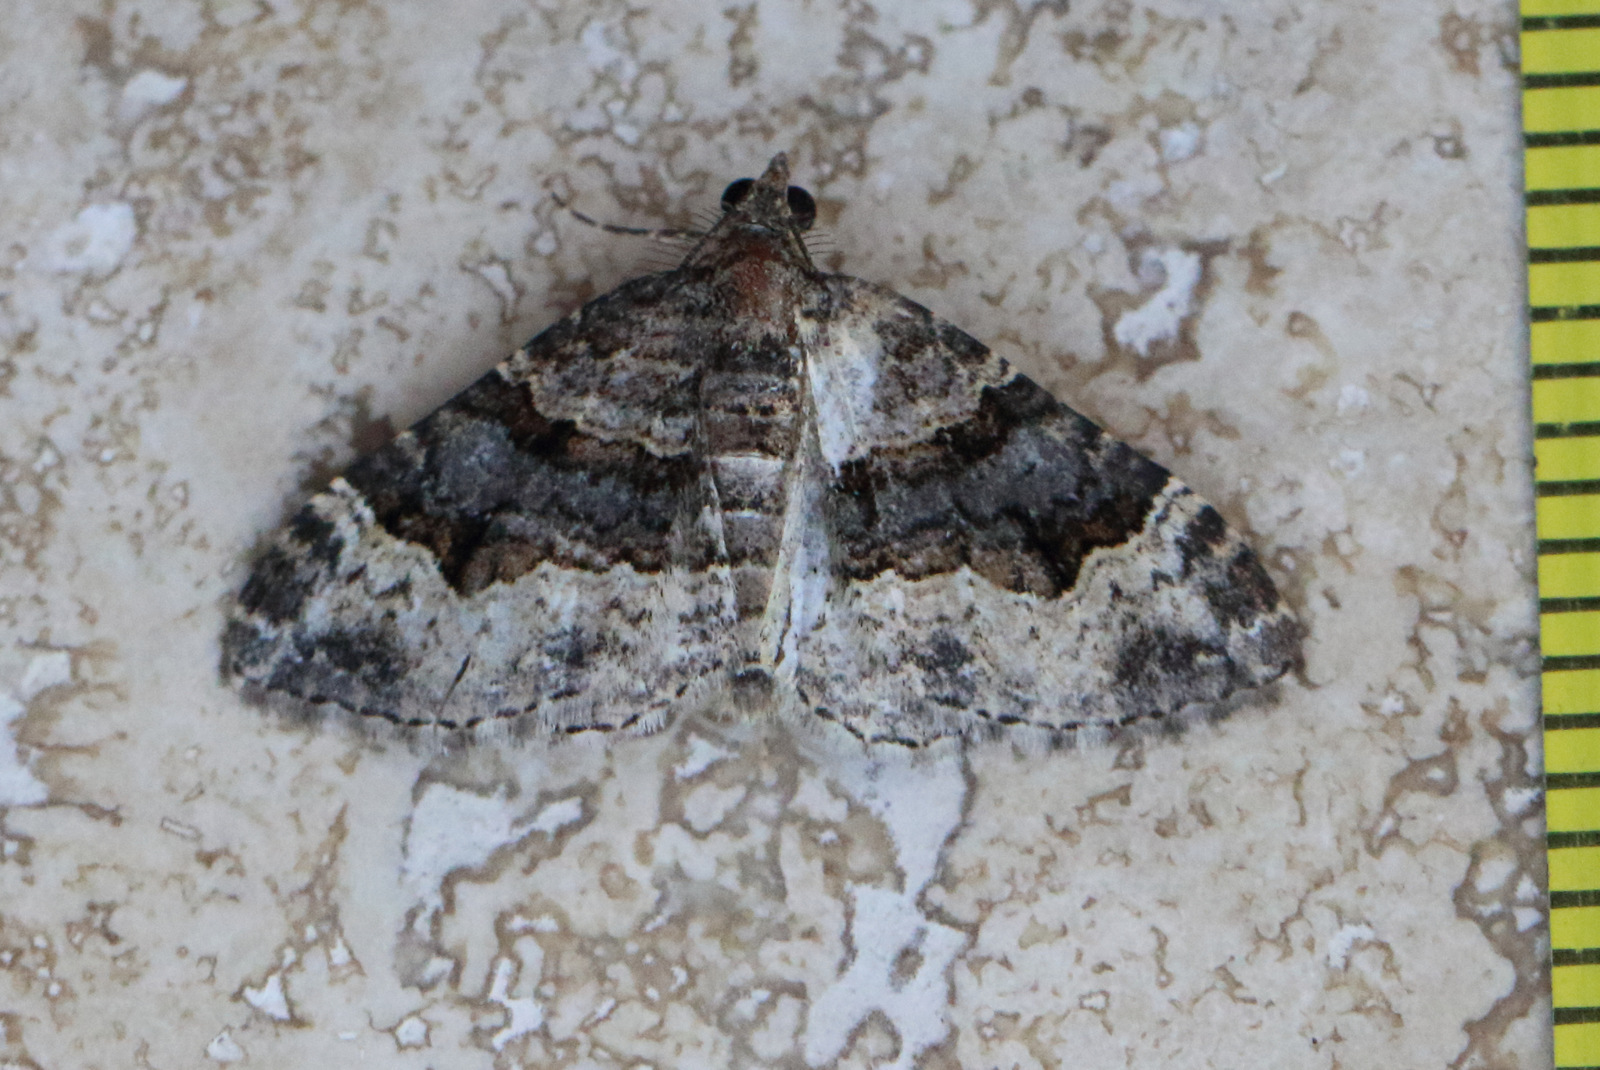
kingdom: Animalia
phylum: Arthropoda
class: Insecta
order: Lepidoptera
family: Geometridae
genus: Epyaxa
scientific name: Epyaxa sodaliata
